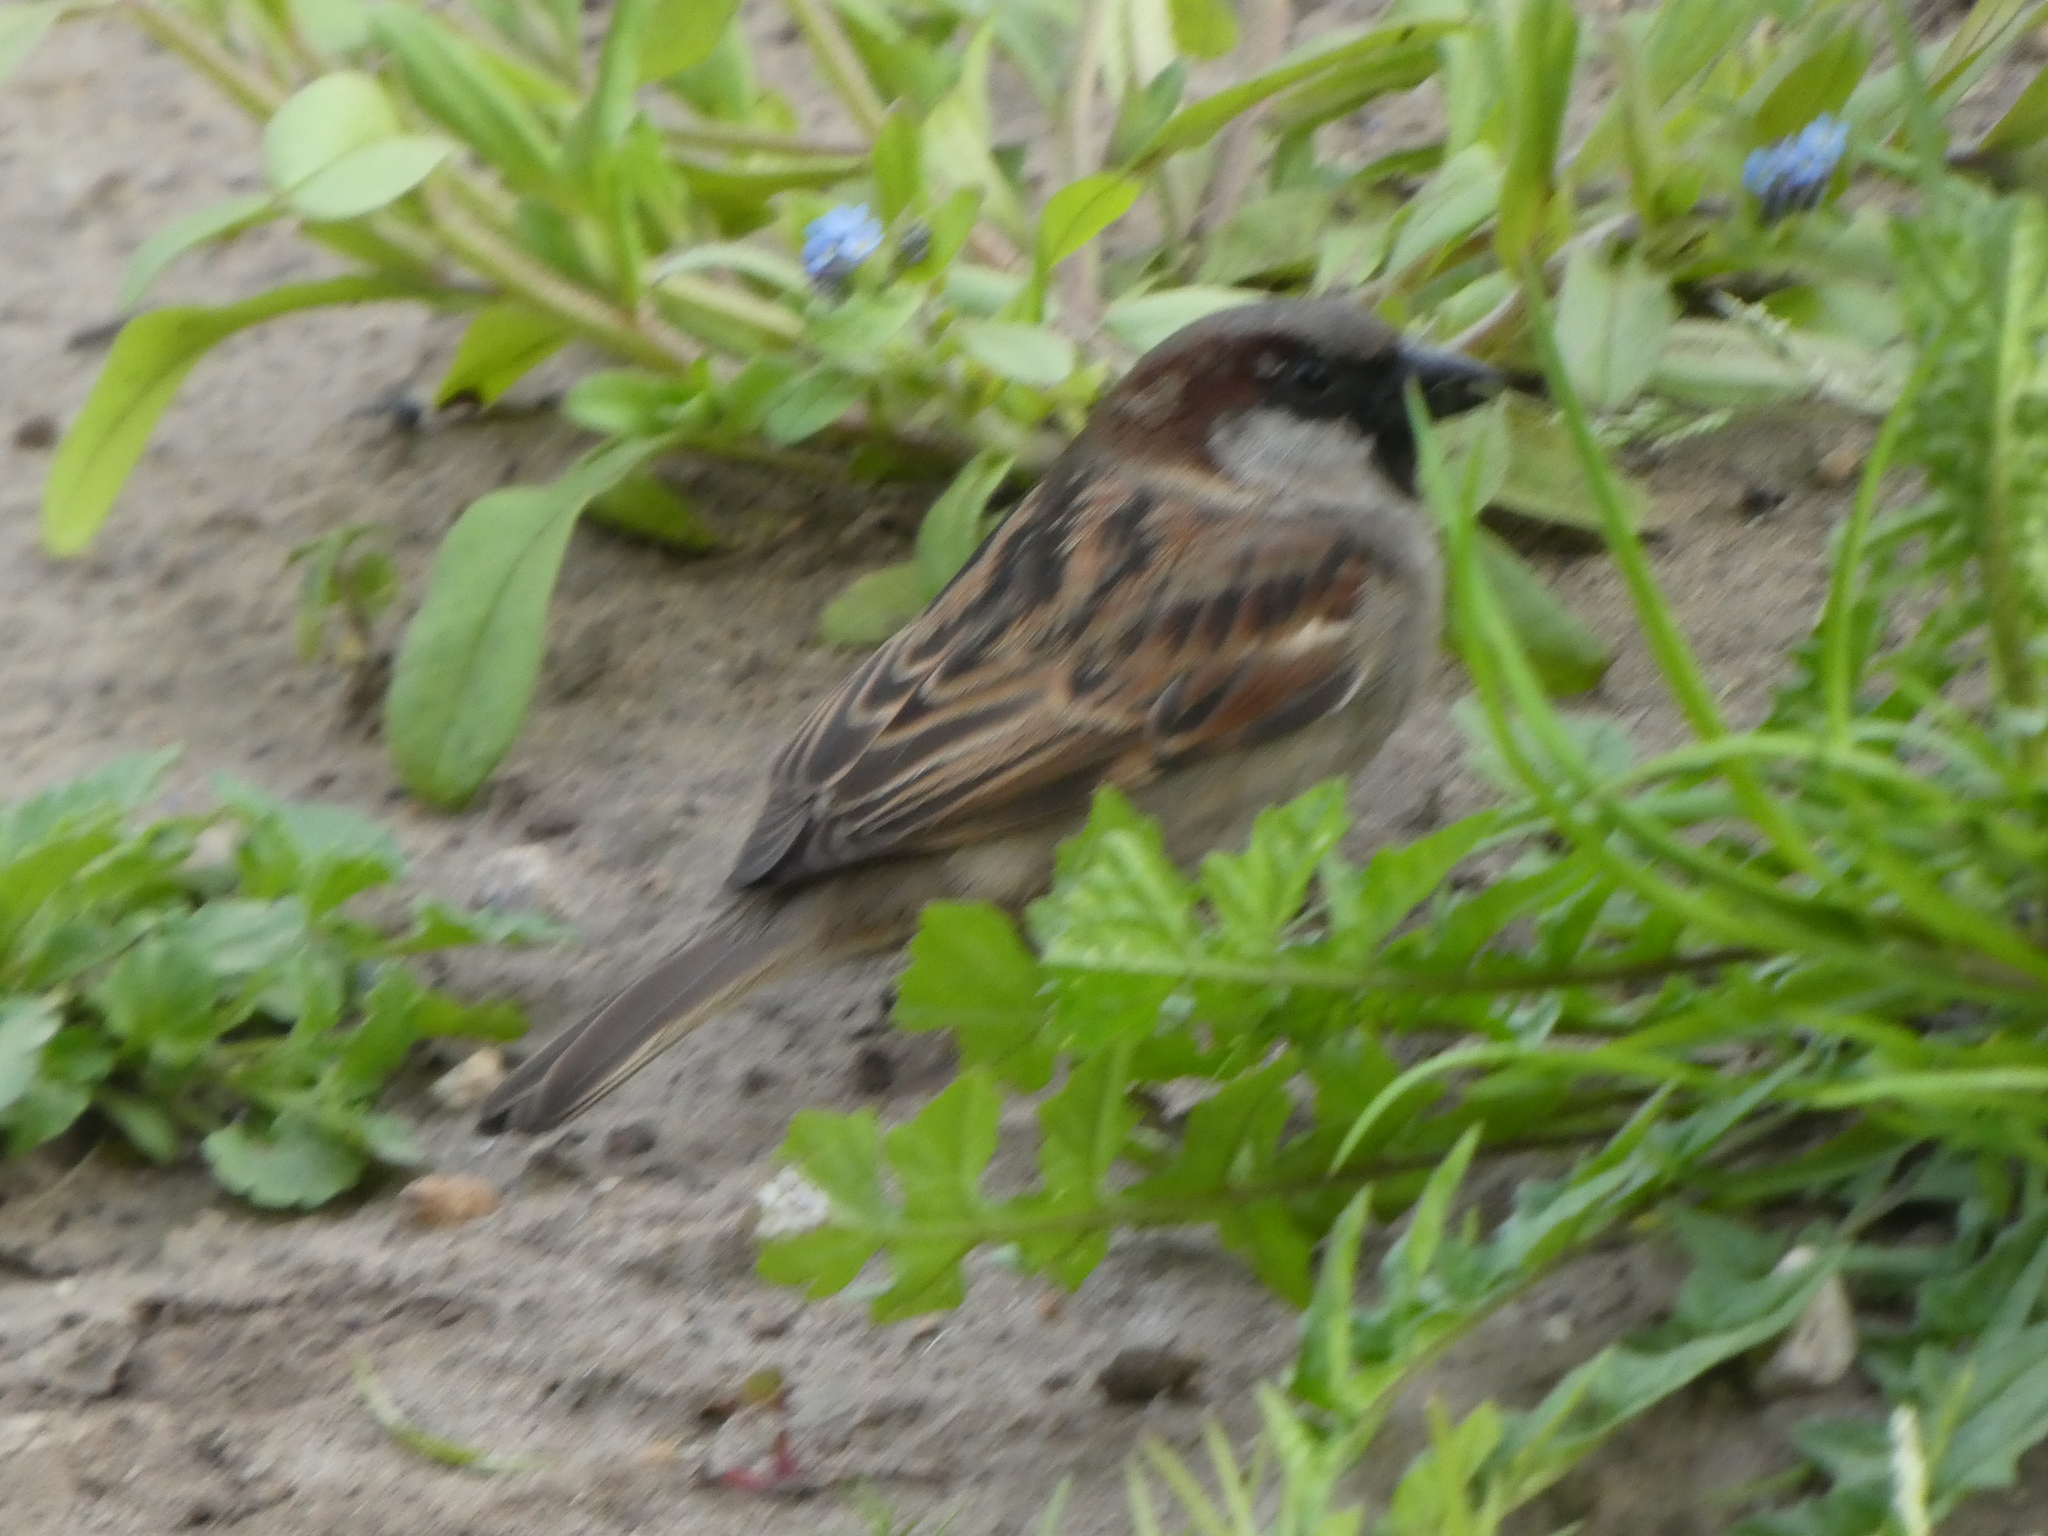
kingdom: Animalia
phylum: Chordata
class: Aves
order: Passeriformes
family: Passeridae
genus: Passer
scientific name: Passer domesticus
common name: House sparrow
